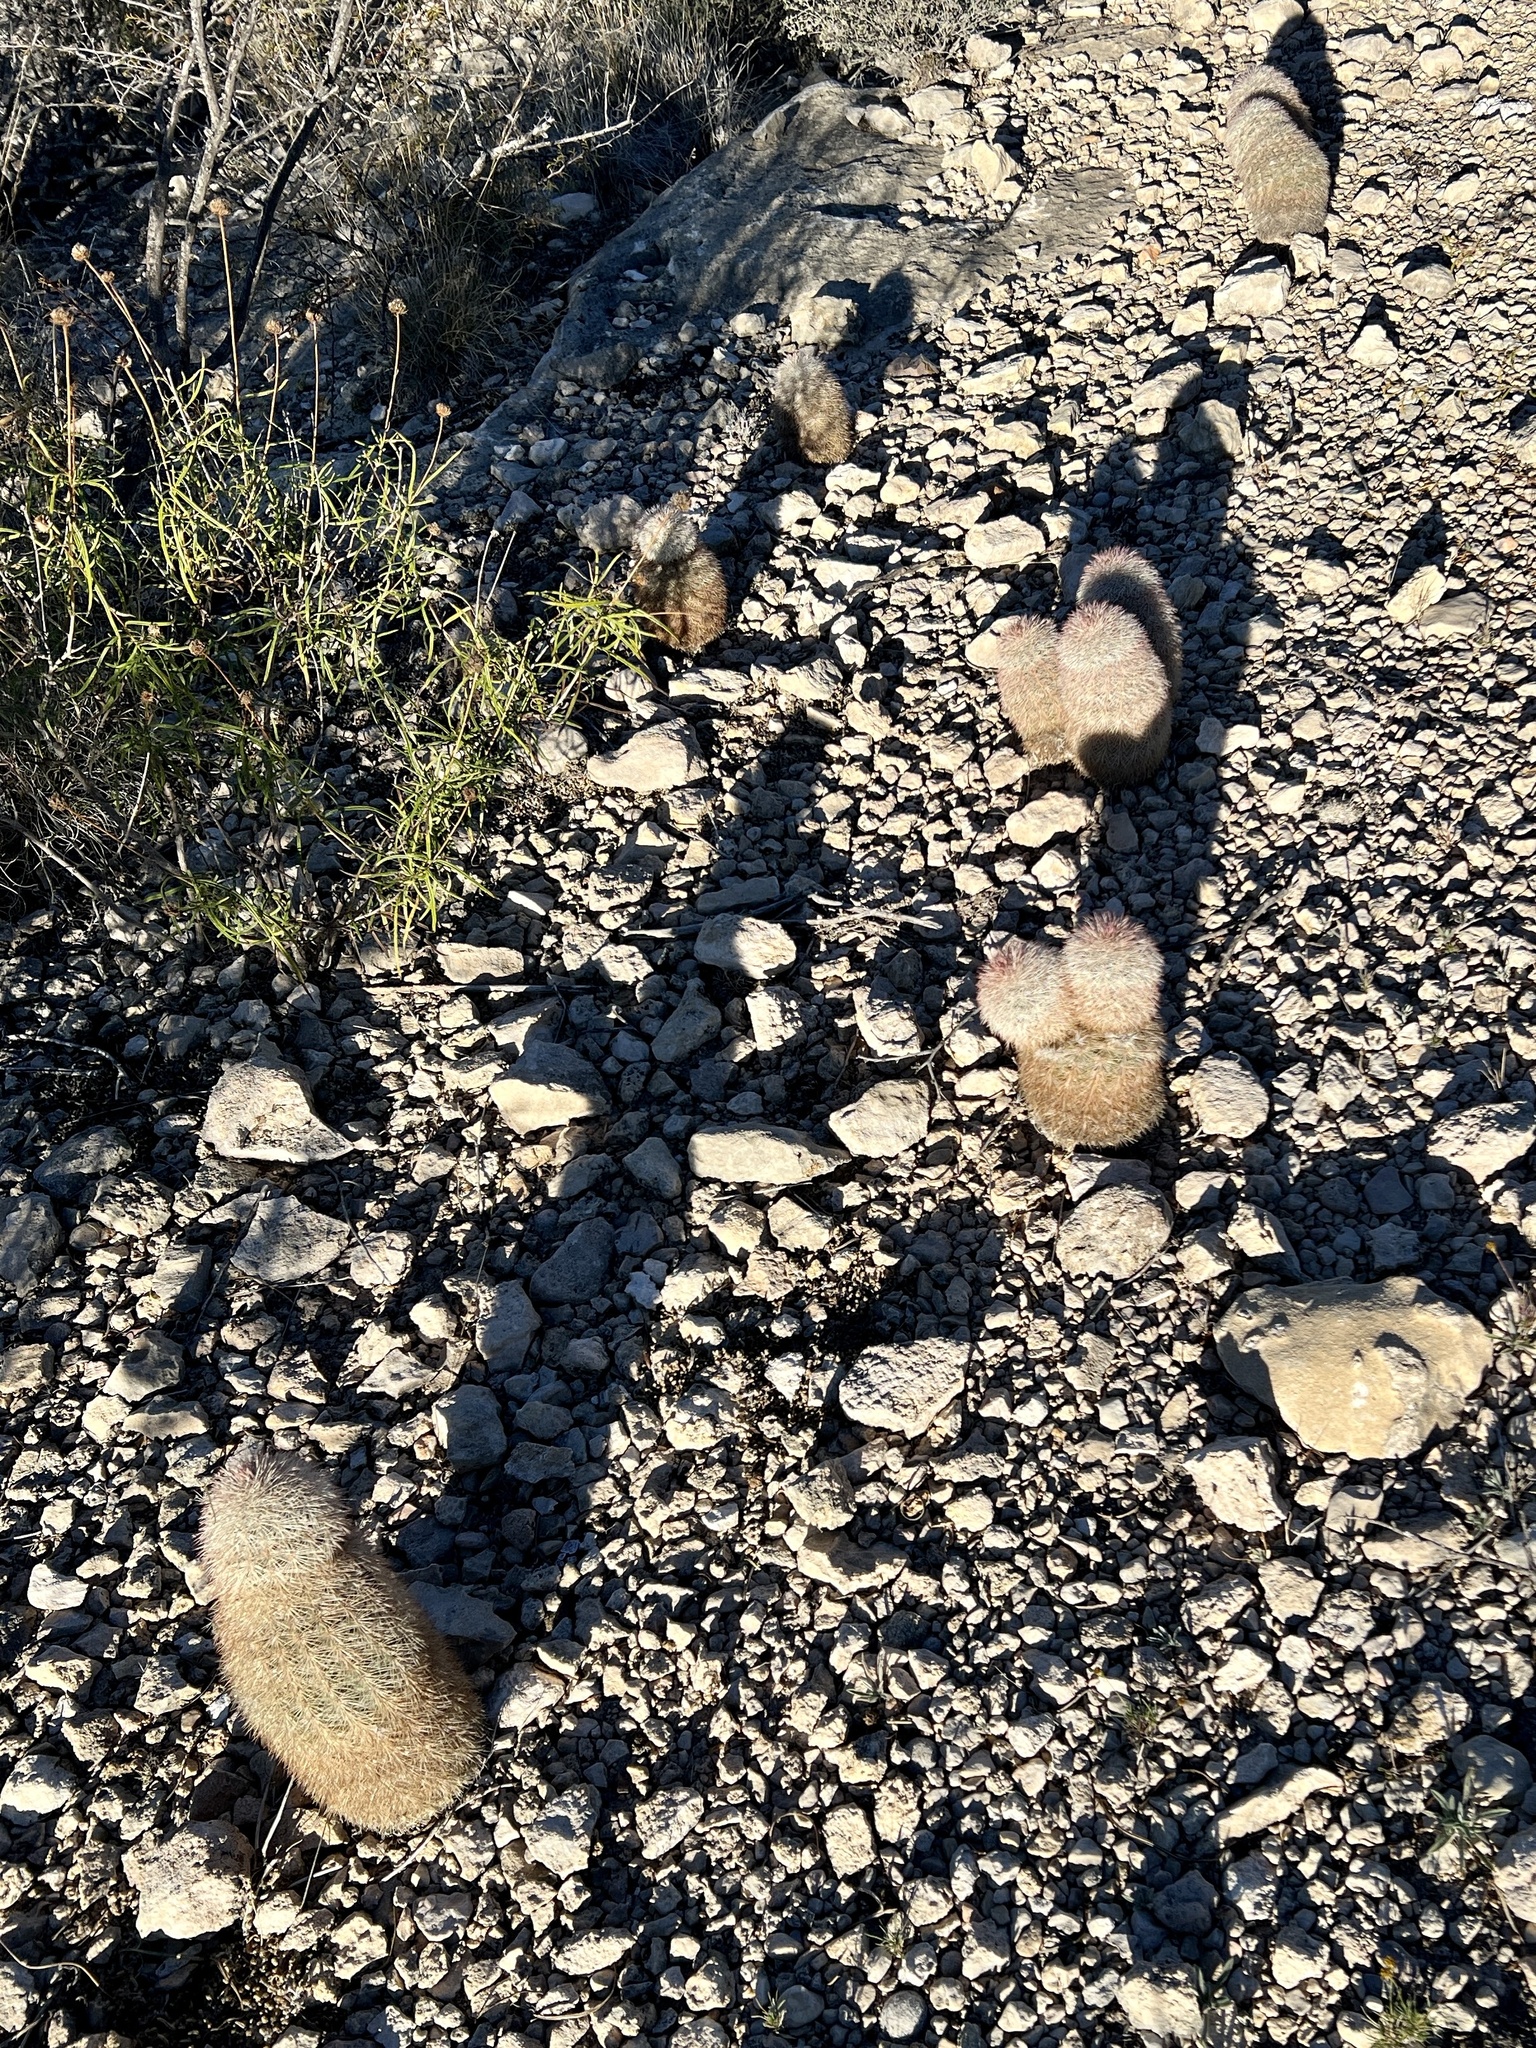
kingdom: Plantae
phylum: Tracheophyta
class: Magnoliopsida
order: Caryophyllales
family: Cactaceae
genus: Echinocereus
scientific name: Echinocereus dasyacanthus
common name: Spiny hedgehog cactus
